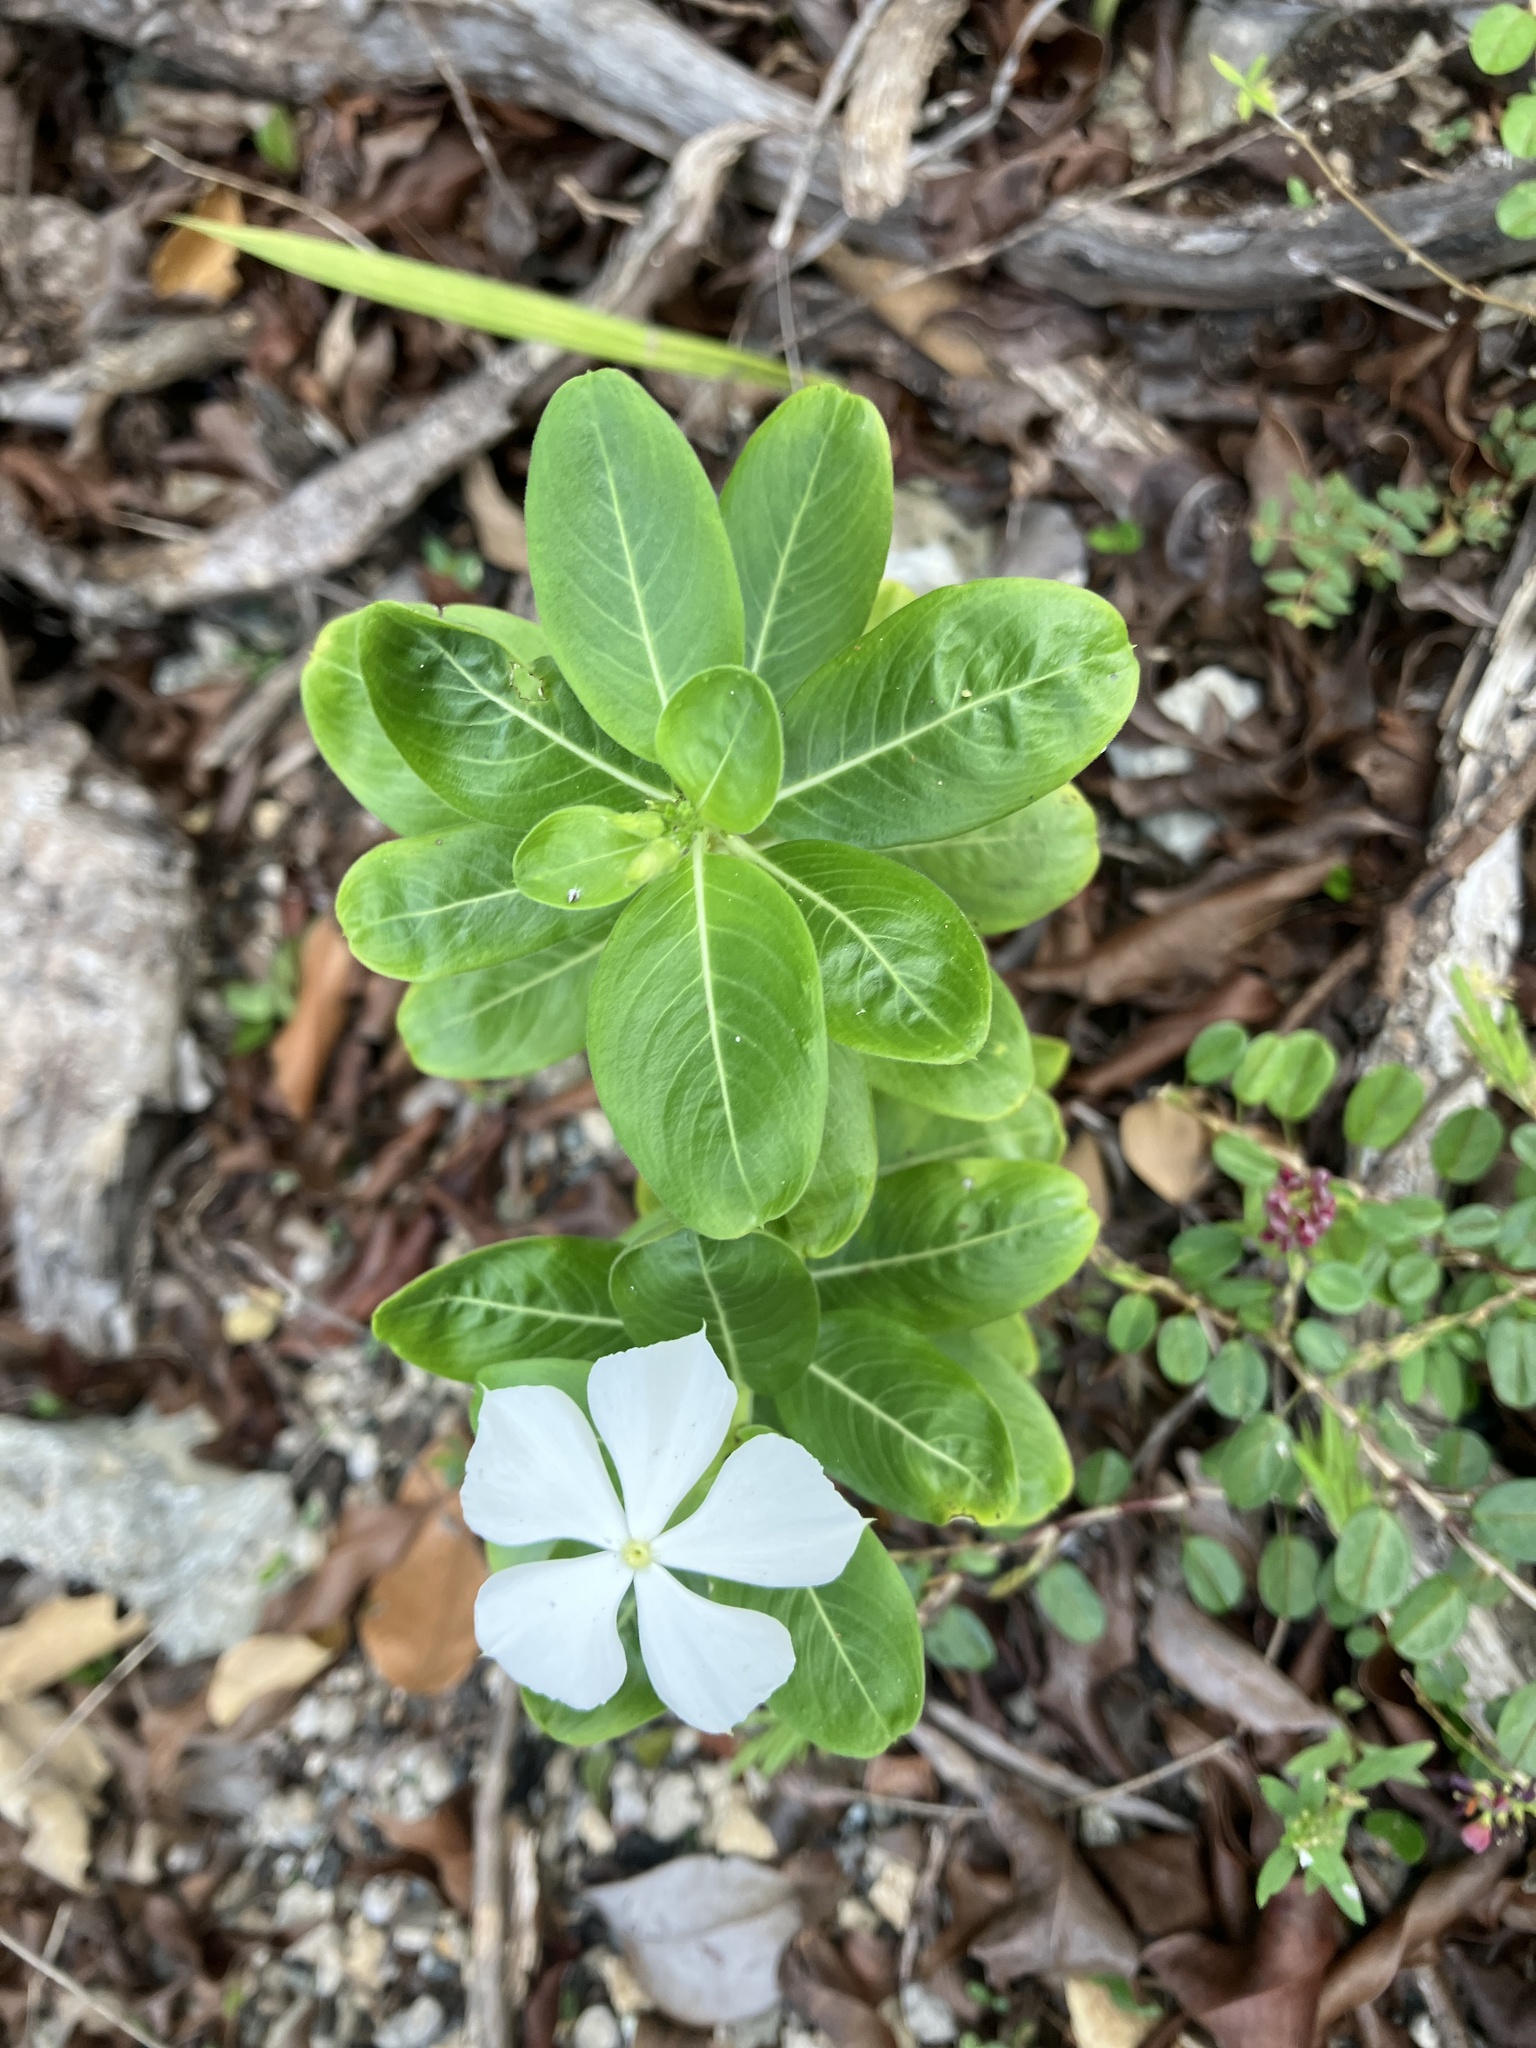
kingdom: Plantae
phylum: Tracheophyta
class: Magnoliopsida
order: Gentianales
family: Apocynaceae
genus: Catharanthus
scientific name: Catharanthus roseus
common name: Madagascar periwinkle
